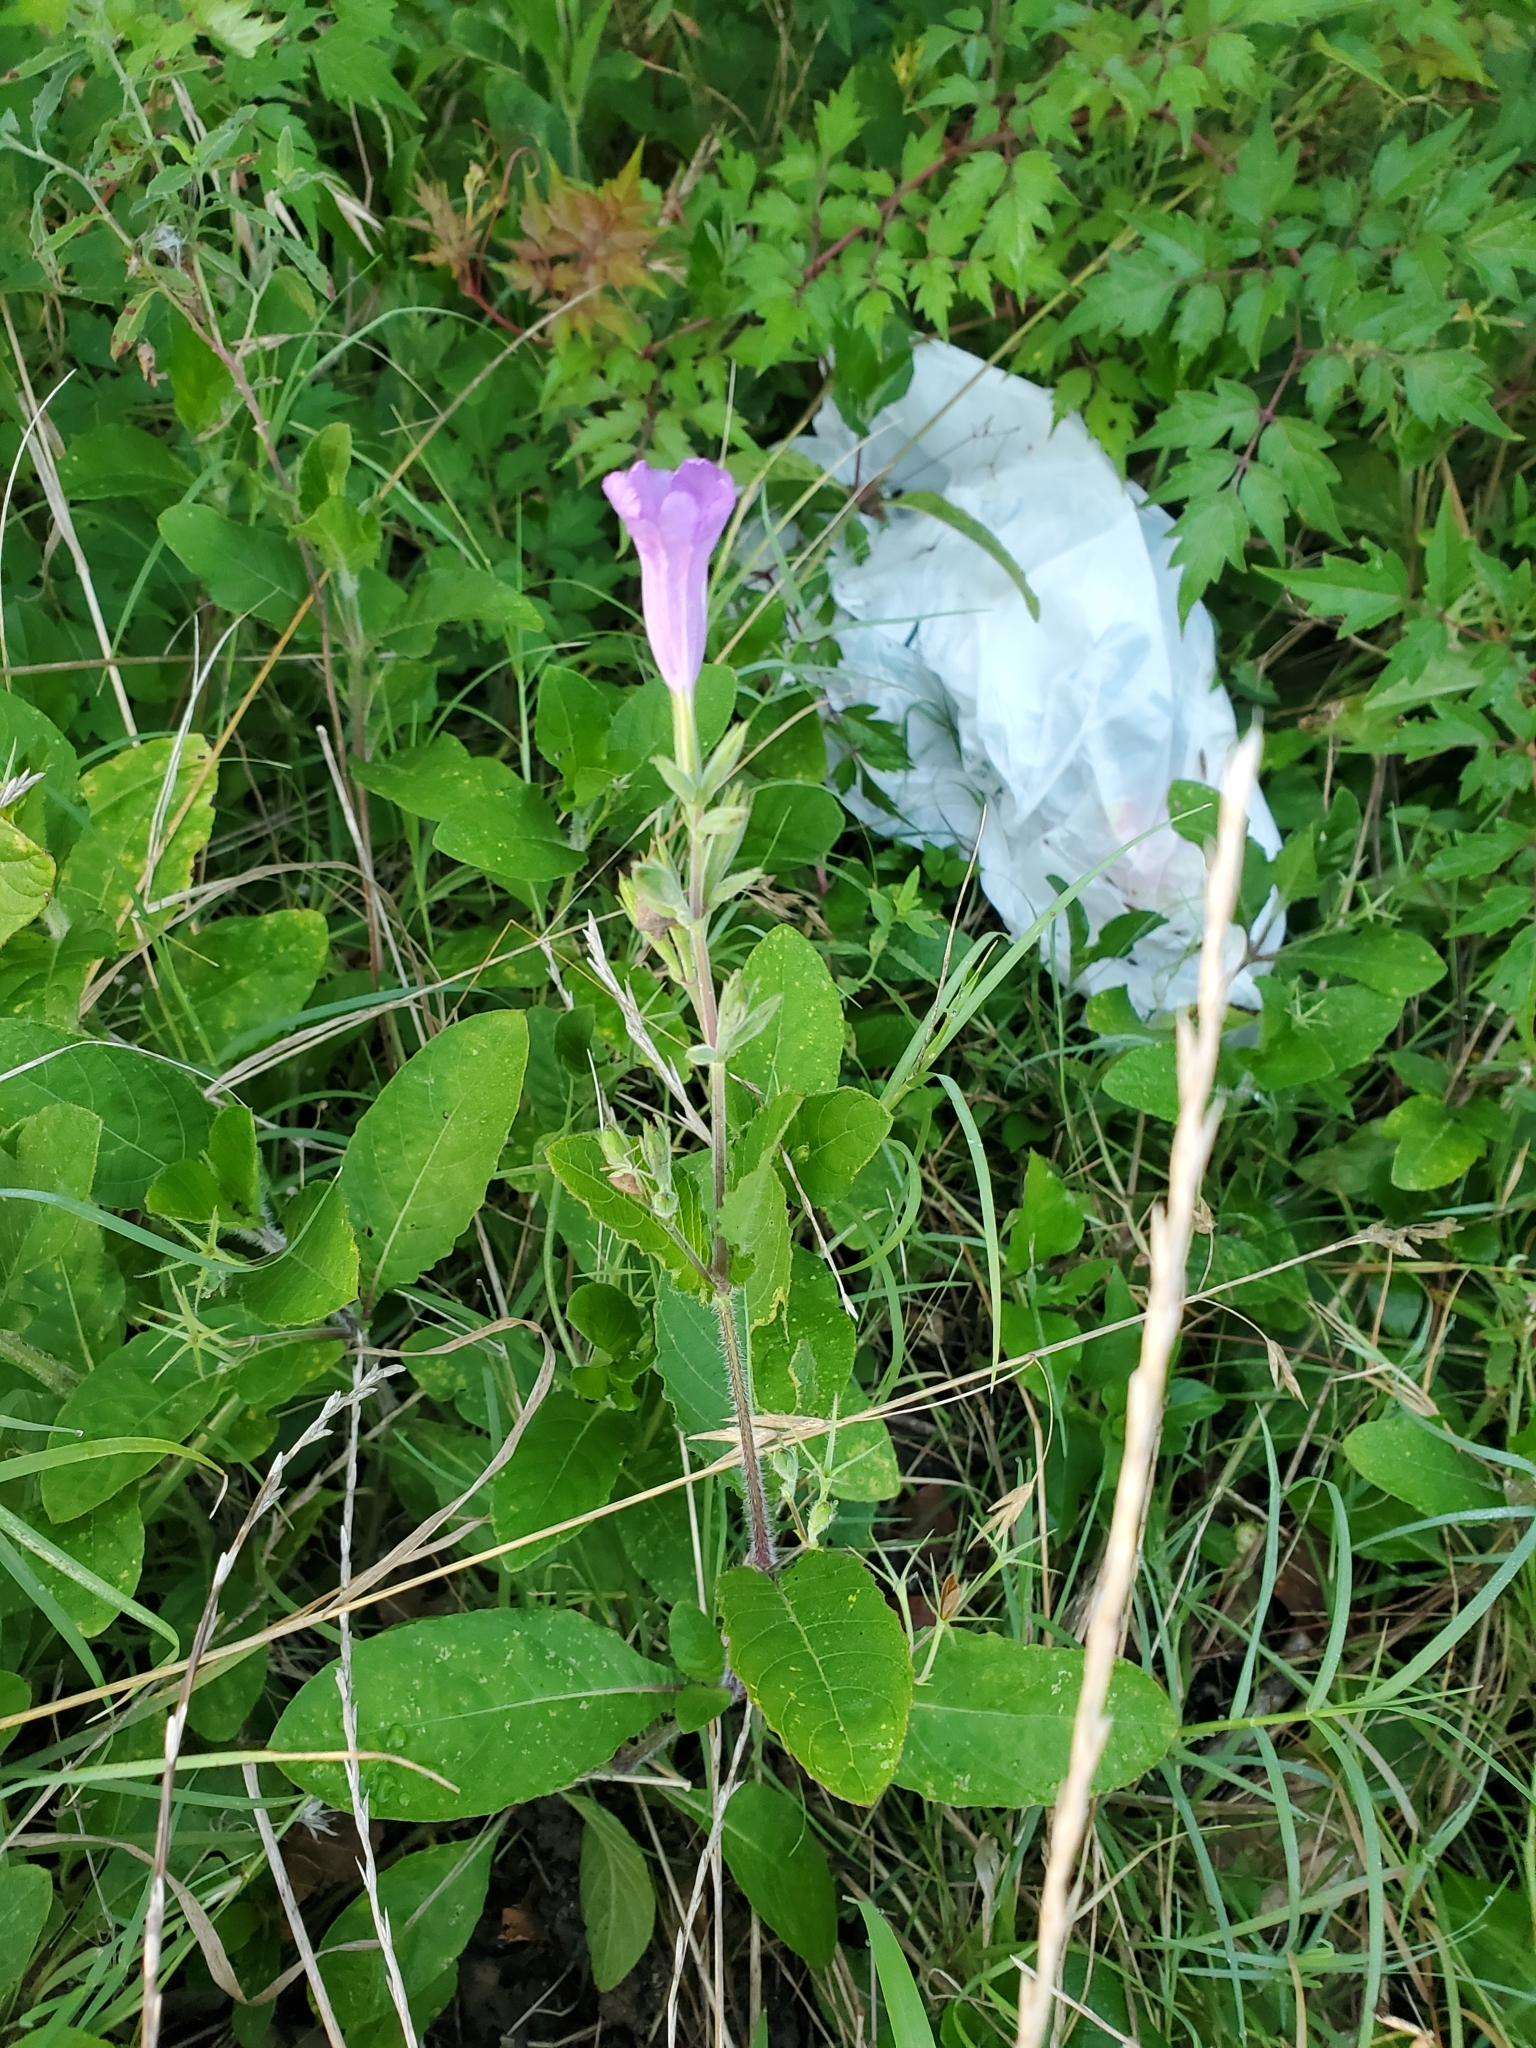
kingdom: Plantae
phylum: Tracheophyta
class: Magnoliopsida
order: Lamiales
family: Acanthaceae
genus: Ruellia
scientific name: Ruellia ciliatiflora
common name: Hairyflower wild petunia
